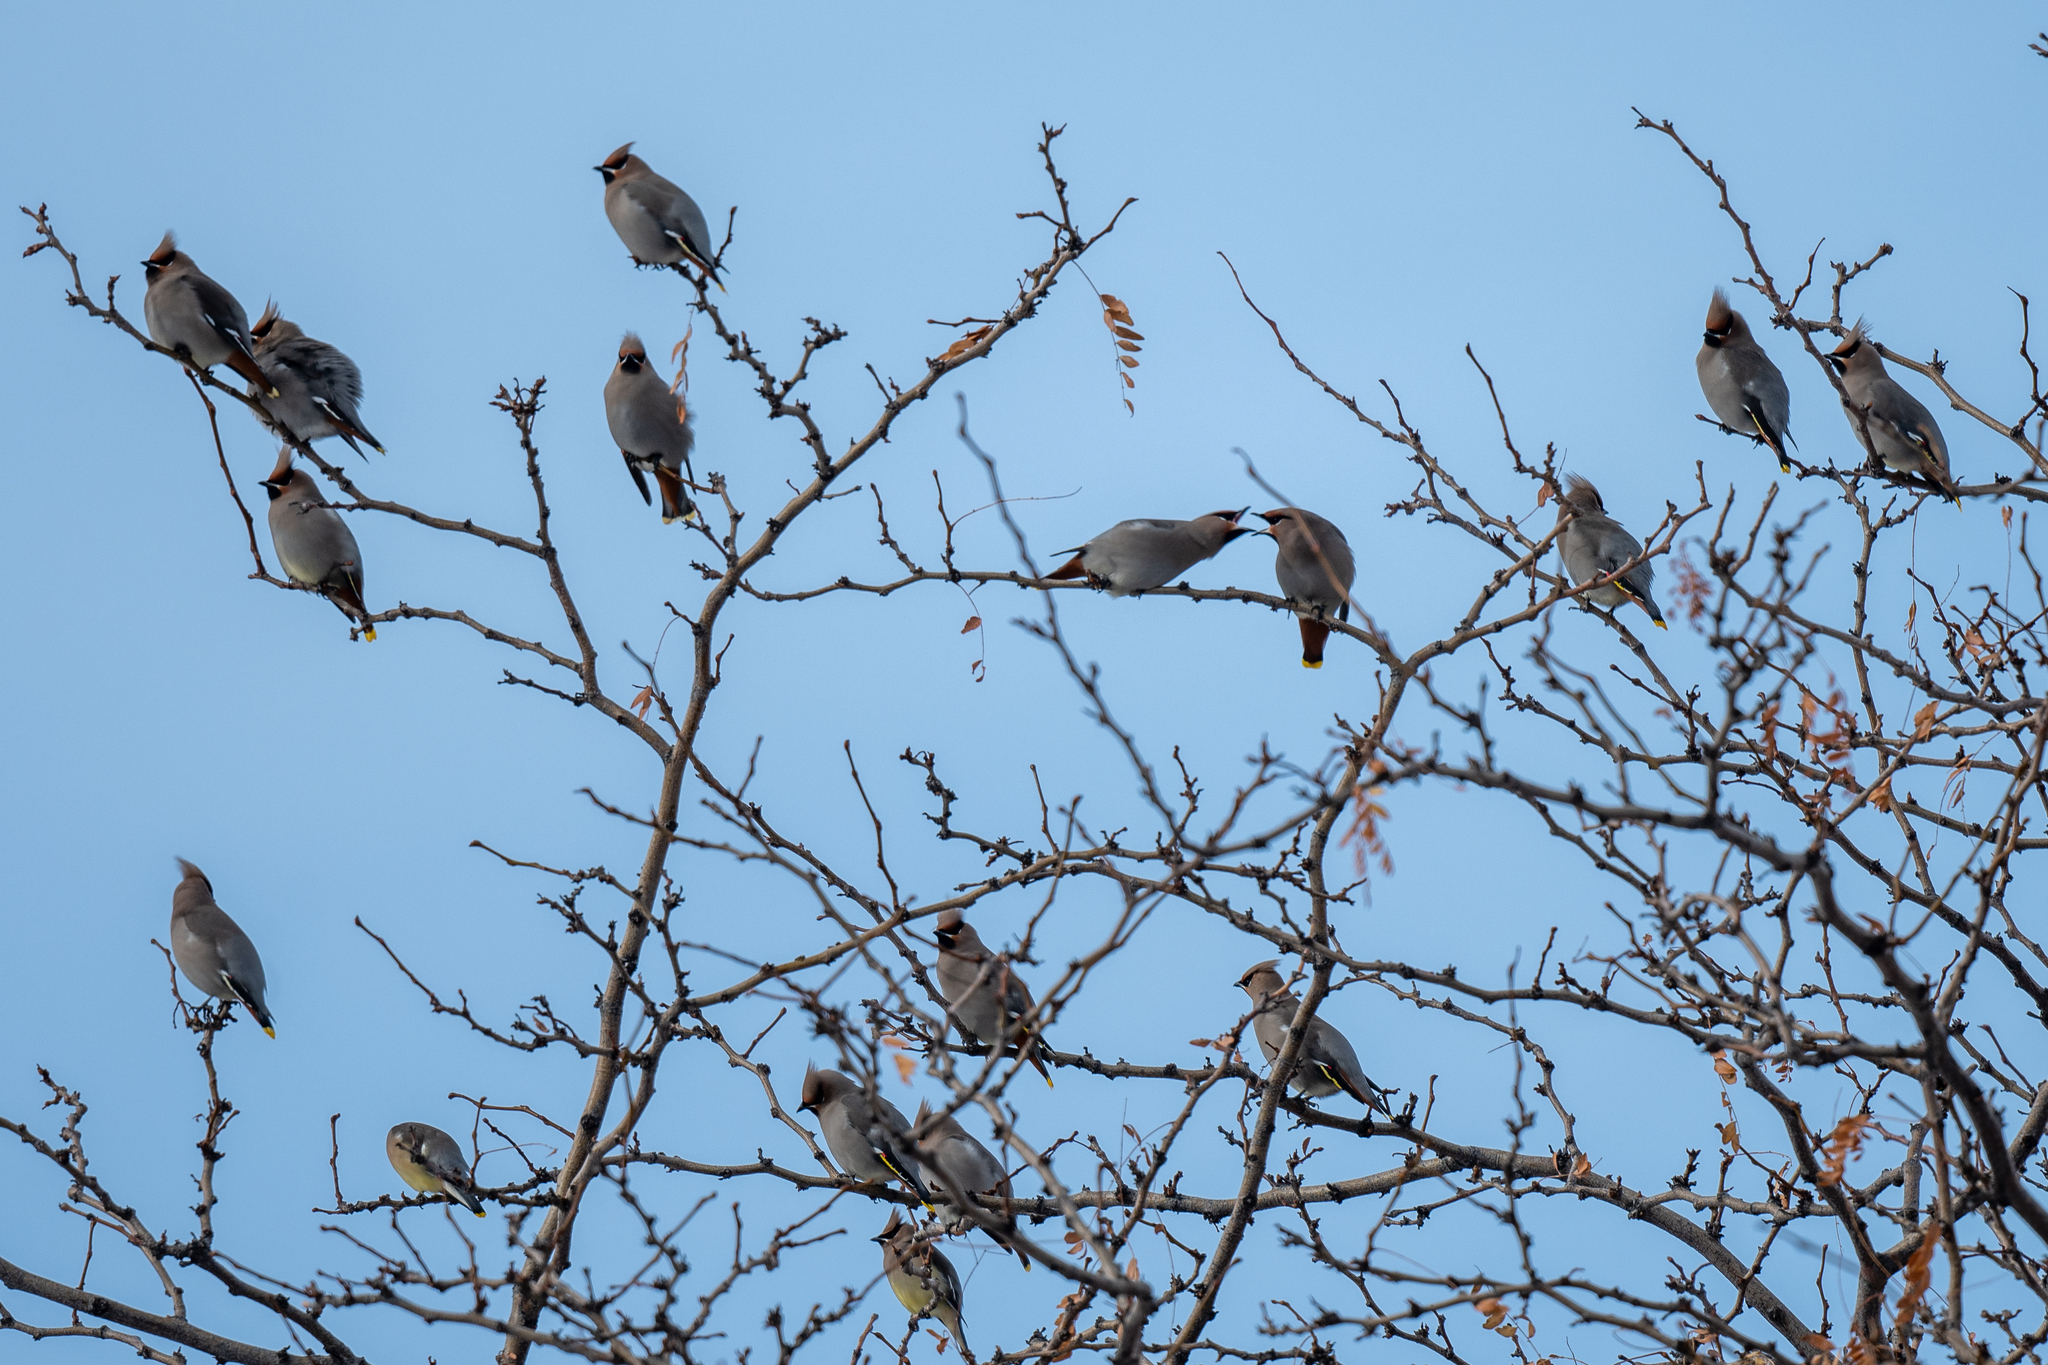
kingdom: Animalia
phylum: Chordata
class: Aves
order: Passeriformes
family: Bombycillidae
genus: Bombycilla
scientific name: Bombycilla garrulus
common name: Bohemian waxwing
